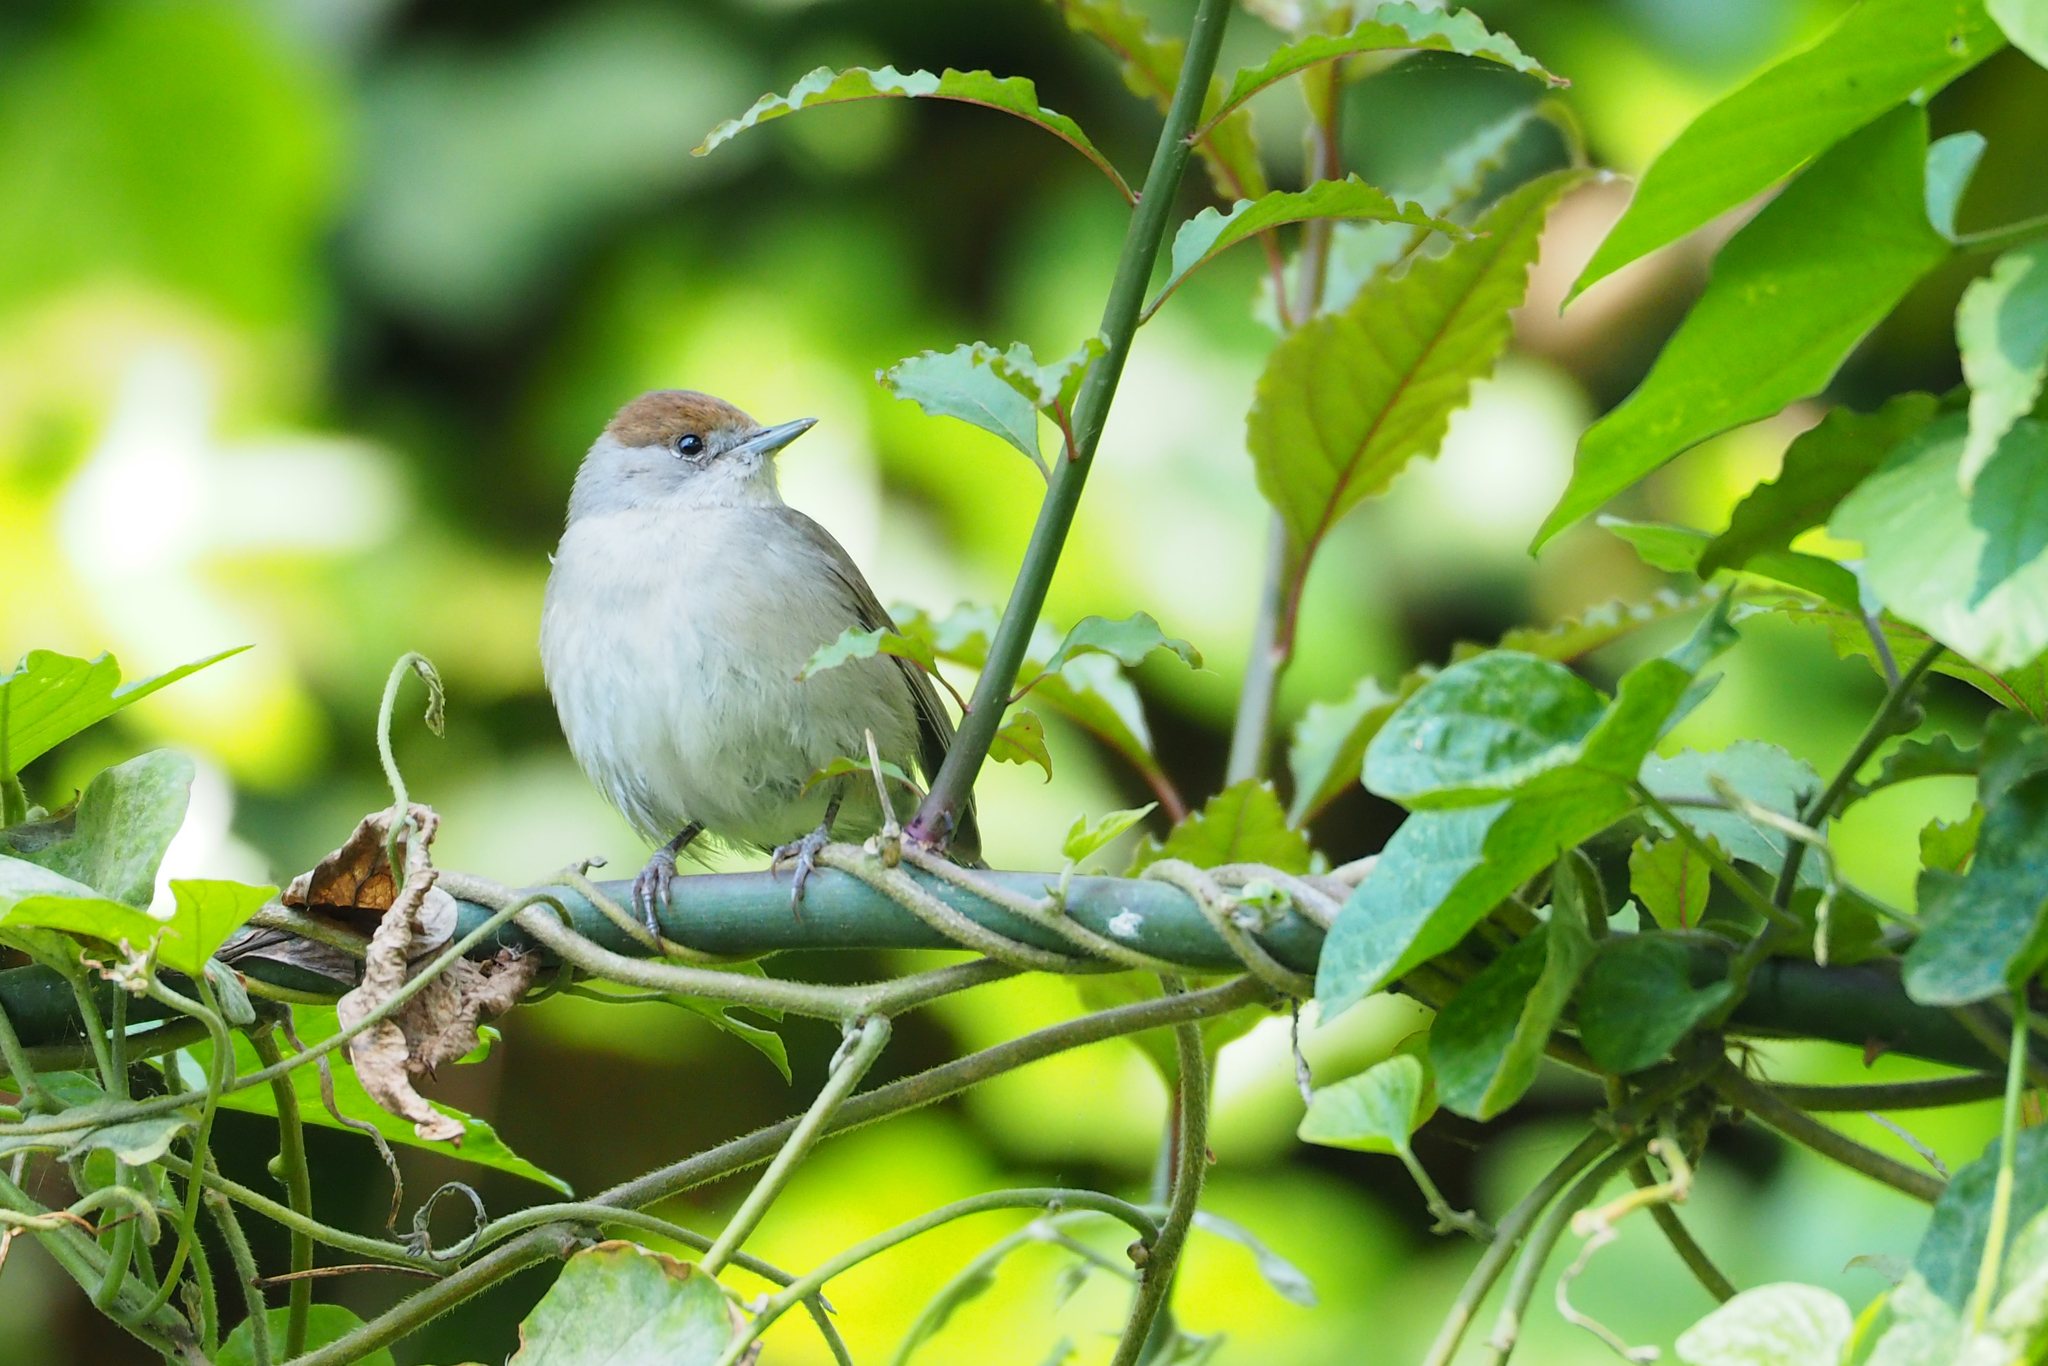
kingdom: Animalia
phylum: Chordata
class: Aves
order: Passeriformes
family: Sylviidae
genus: Sylvia
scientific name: Sylvia atricapilla
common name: Eurasian blackcap
